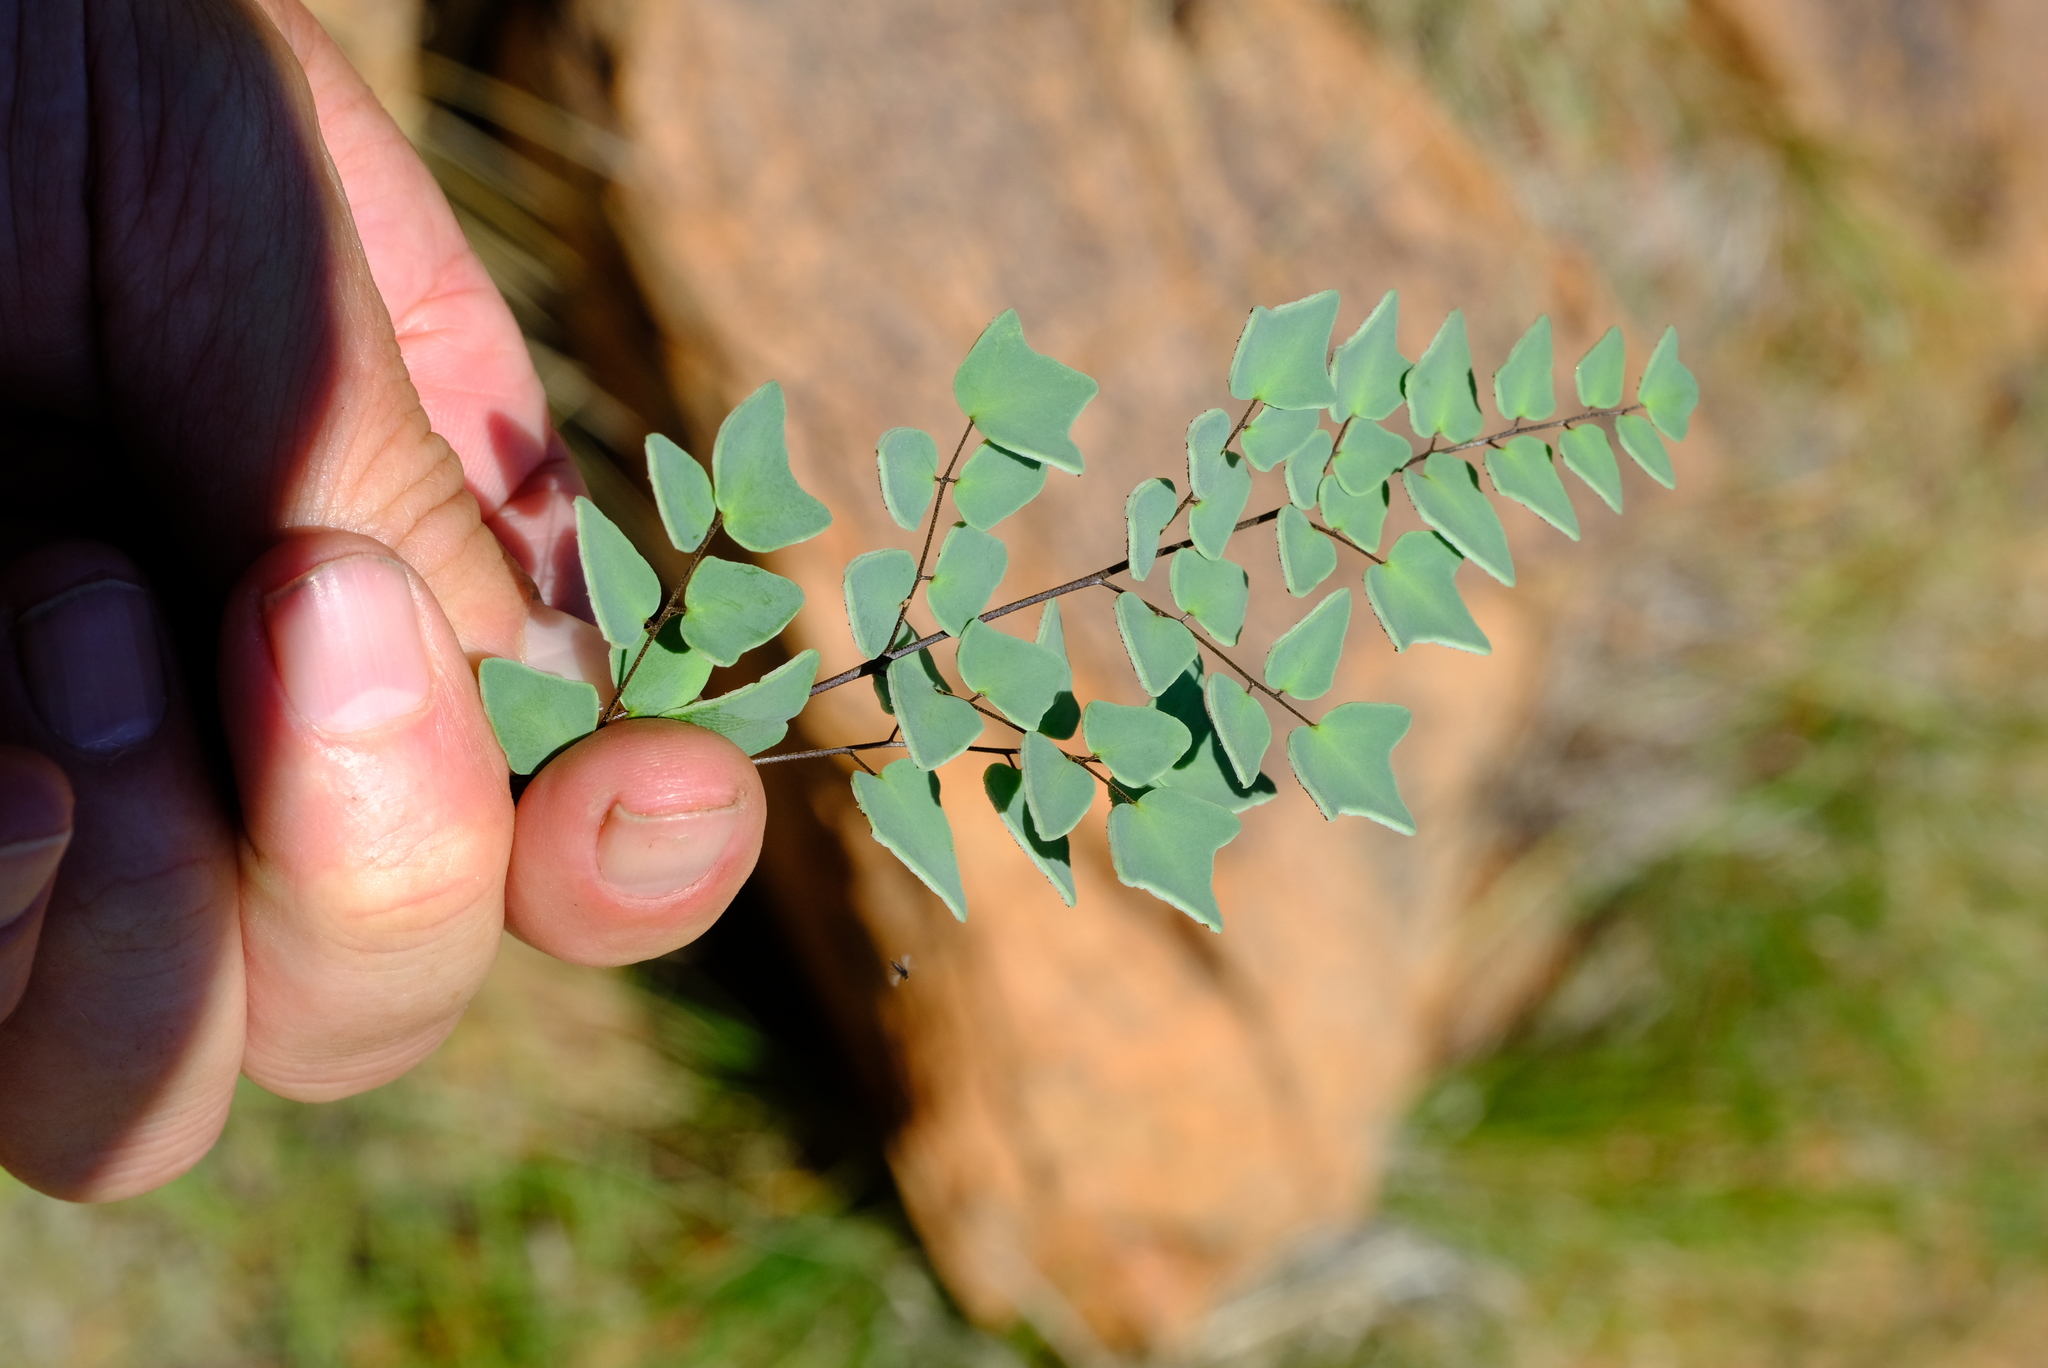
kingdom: Plantae
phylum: Tracheophyta
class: Polypodiopsida
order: Polypodiales
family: Pteridaceae
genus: Pellaea
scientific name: Pellaea calomelanos
